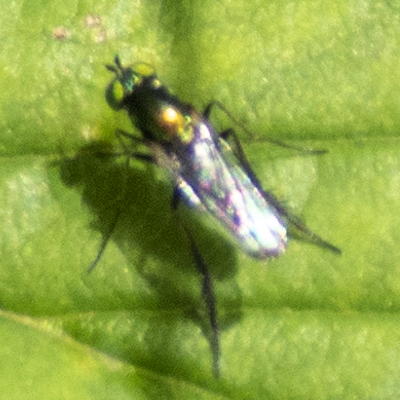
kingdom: Animalia
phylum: Arthropoda
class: Insecta
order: Diptera
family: Dolichopodidae
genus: Dolichopus
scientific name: Dolichopus setifer
